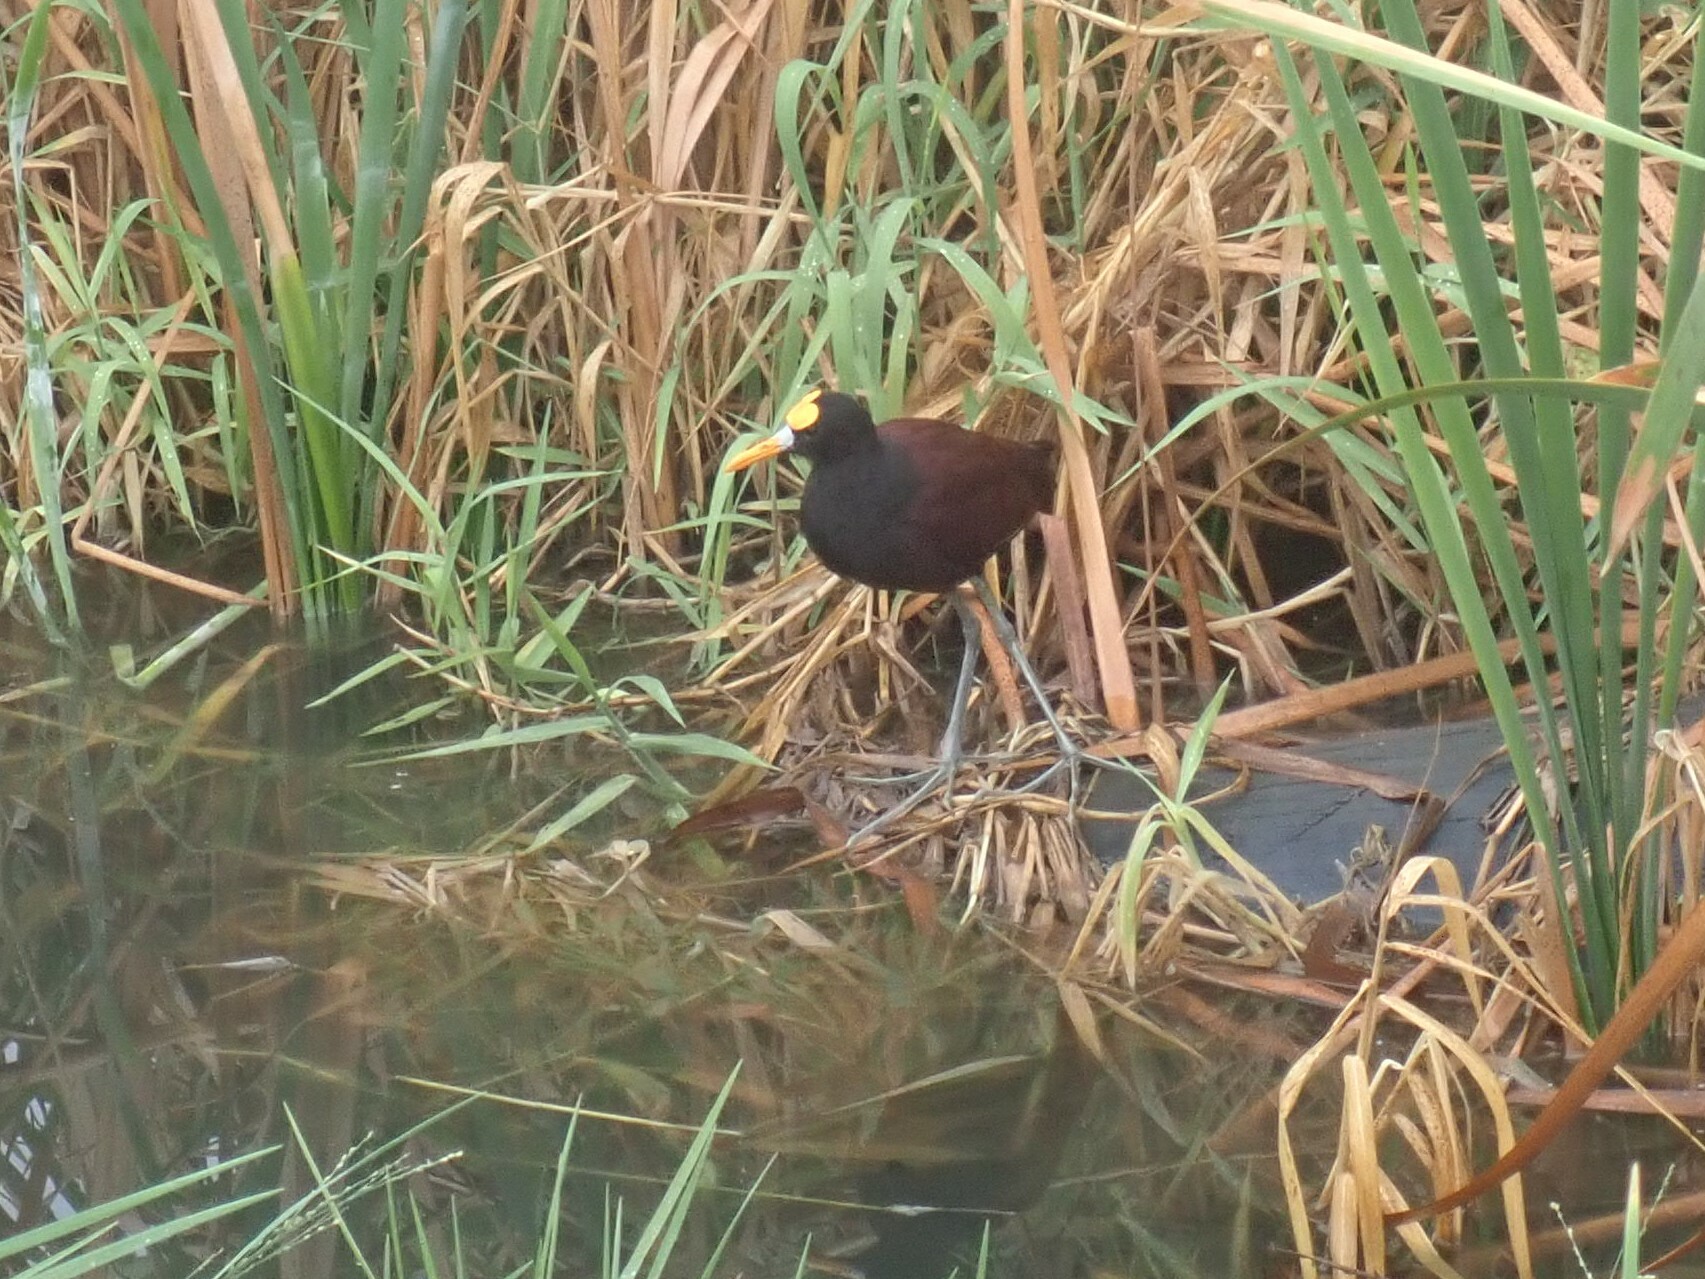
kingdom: Animalia
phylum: Chordata
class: Aves
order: Charadriiformes
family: Jacanidae
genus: Jacana
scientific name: Jacana spinosa
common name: Northern jacana
